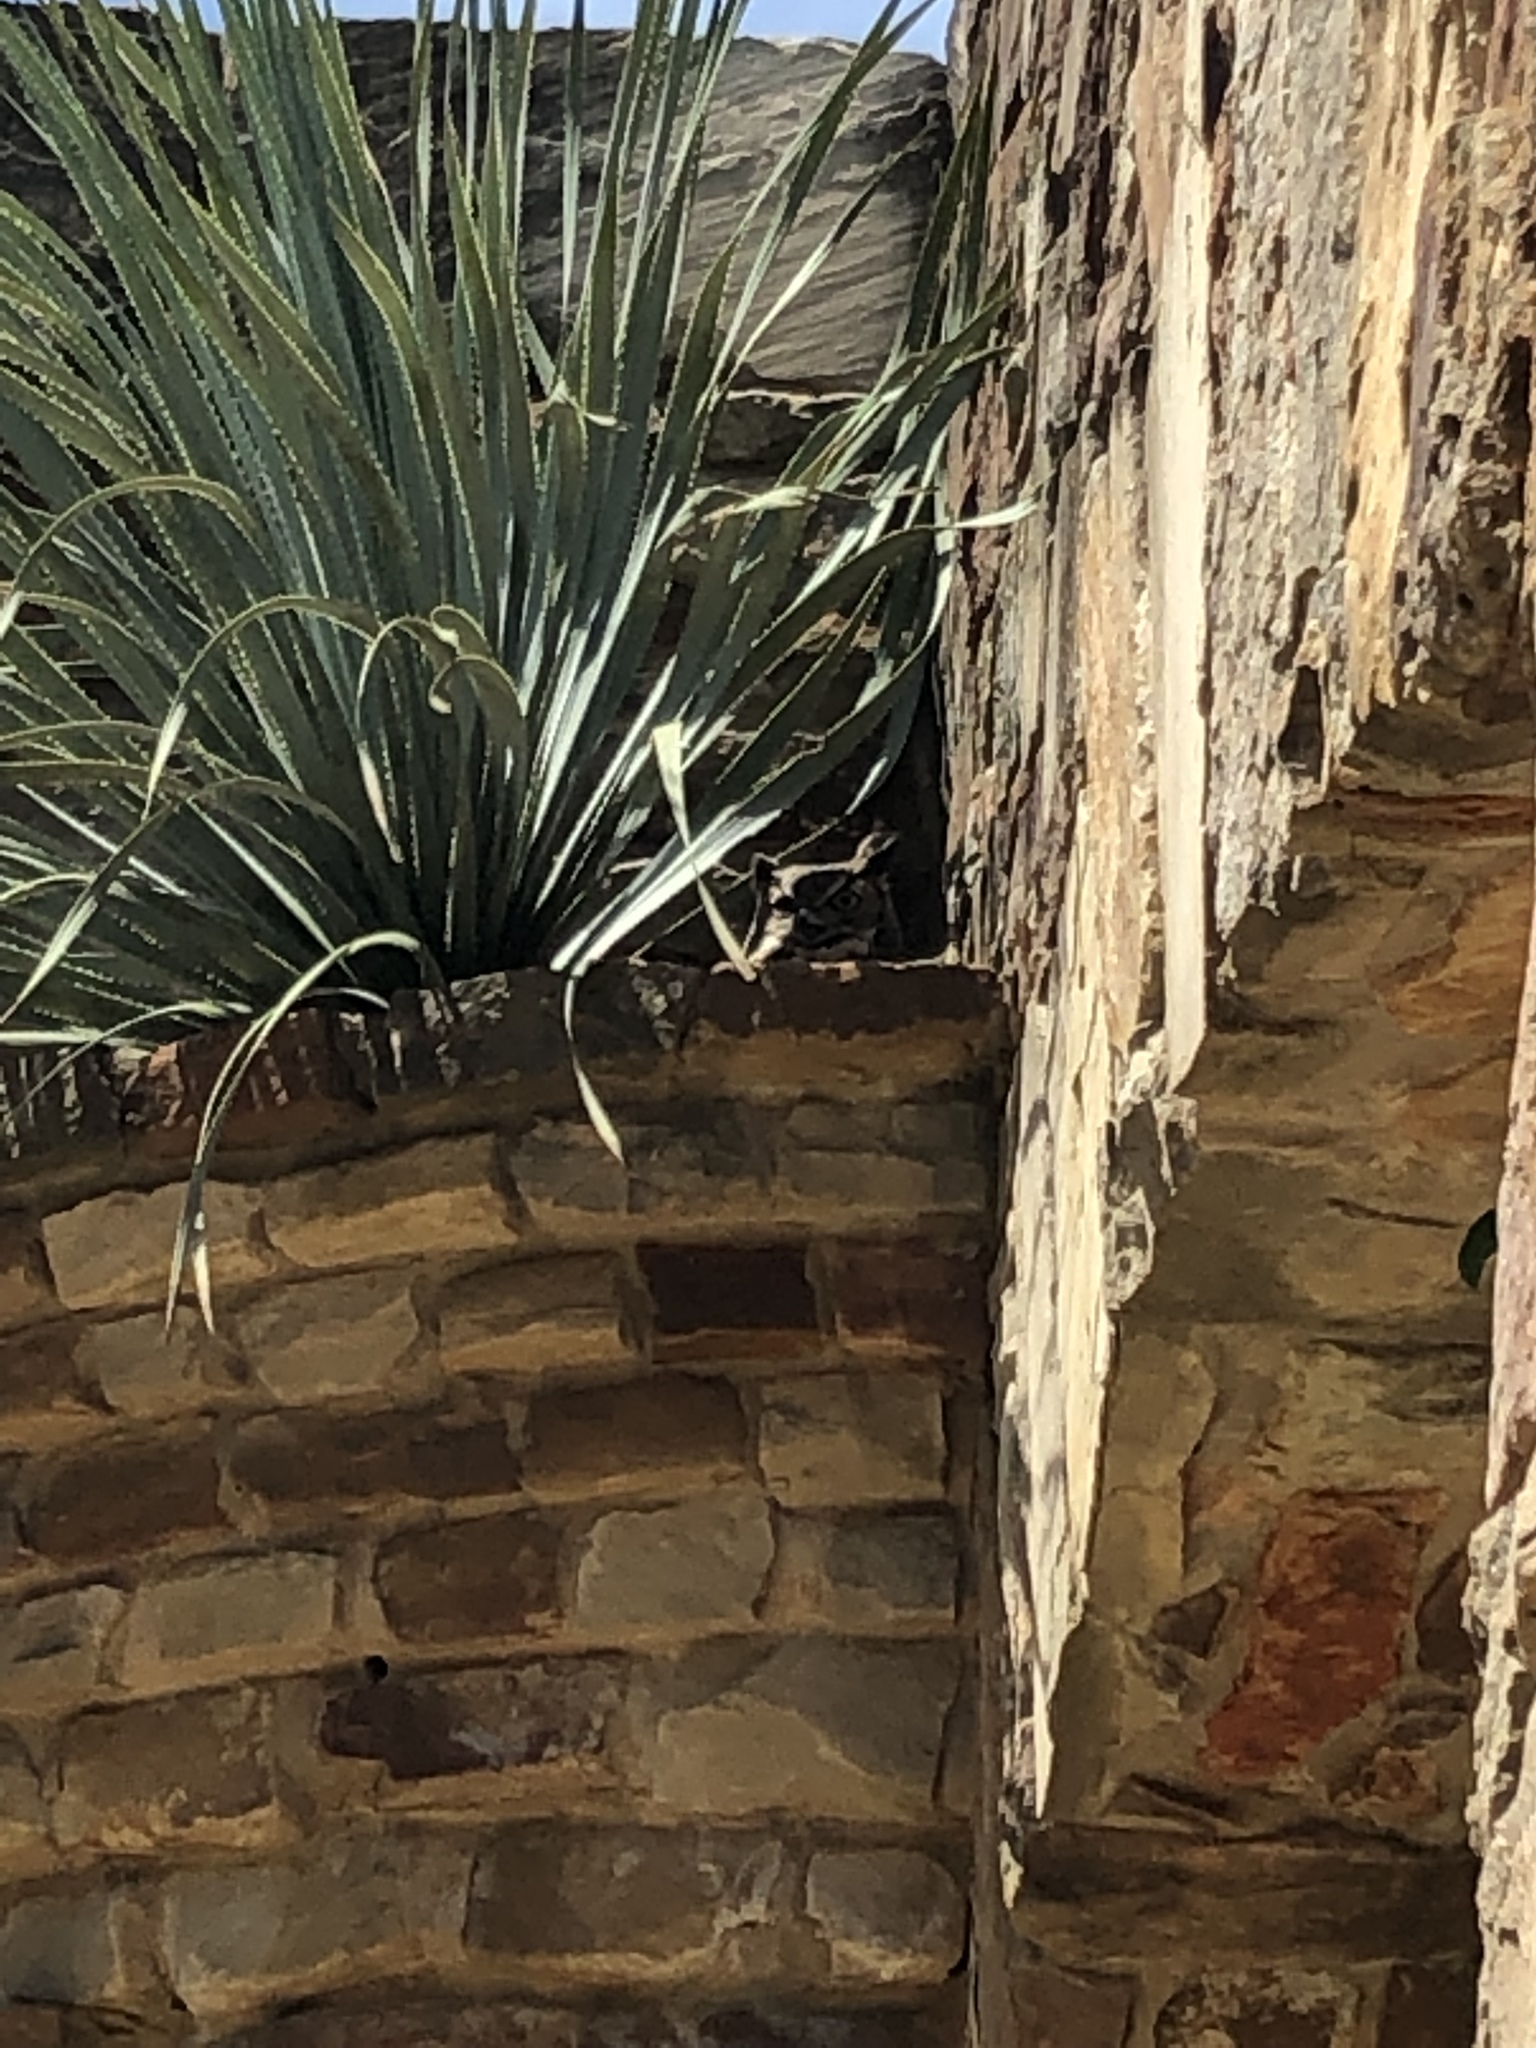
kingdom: Animalia
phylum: Chordata
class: Aves
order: Strigiformes
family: Strigidae
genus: Bubo
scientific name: Bubo virginianus
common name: Great horned owl
